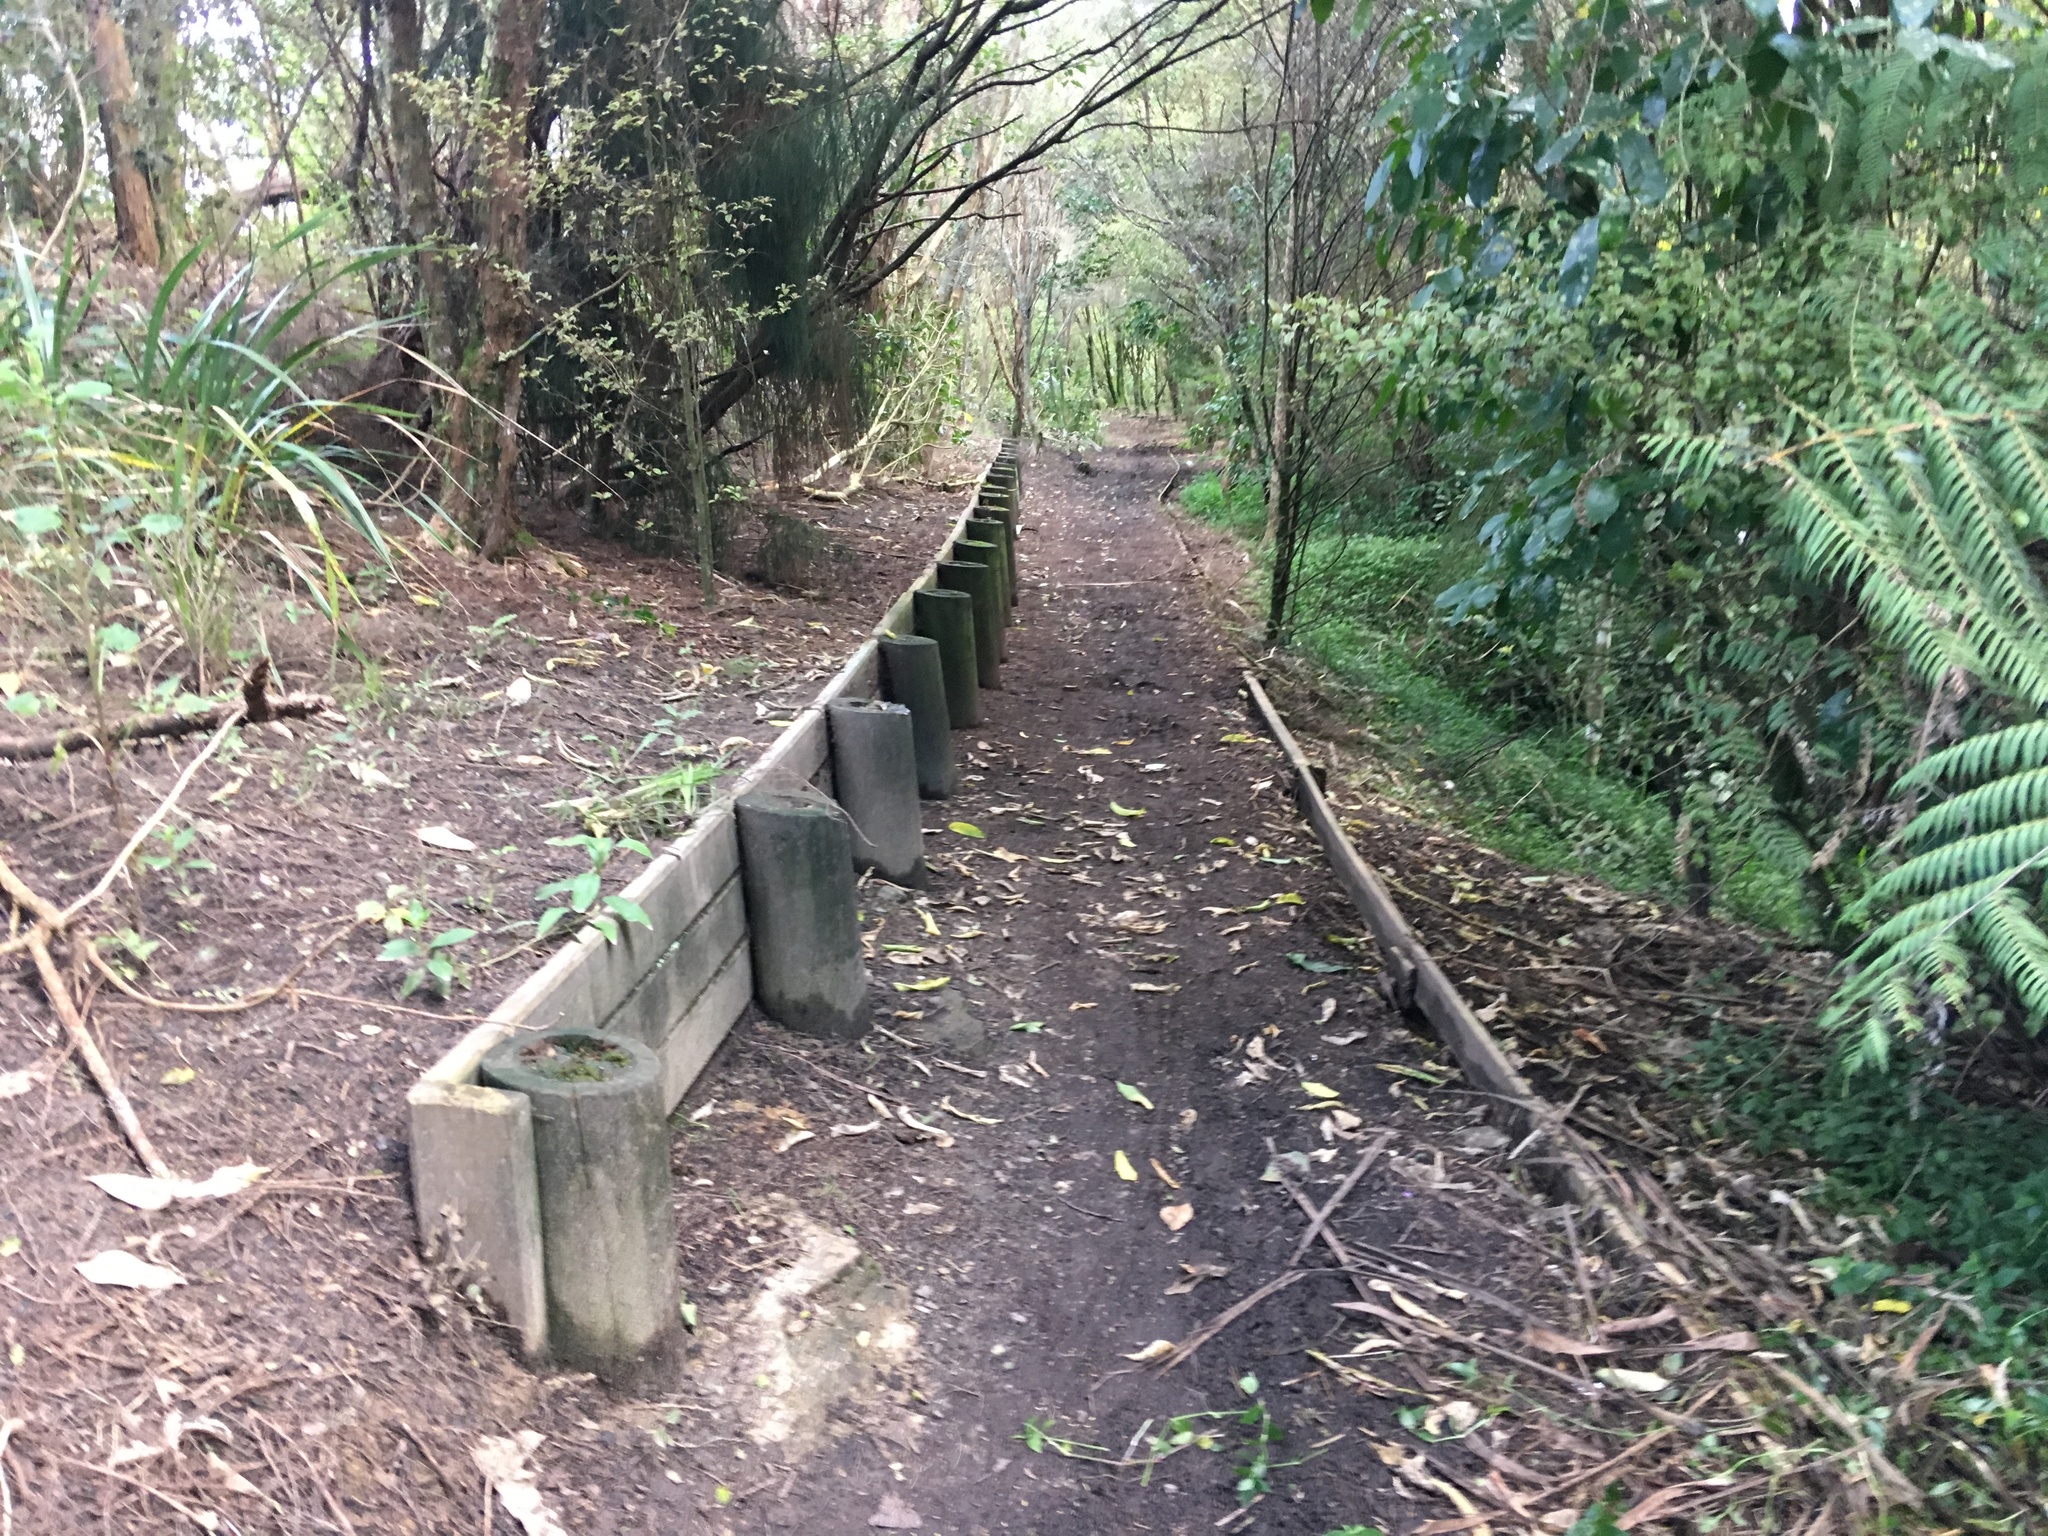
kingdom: Plantae
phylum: Tracheophyta
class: Liliopsida
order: Commelinales
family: Commelinaceae
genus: Tradescantia
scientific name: Tradescantia fluminensis
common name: Wandering-jew
